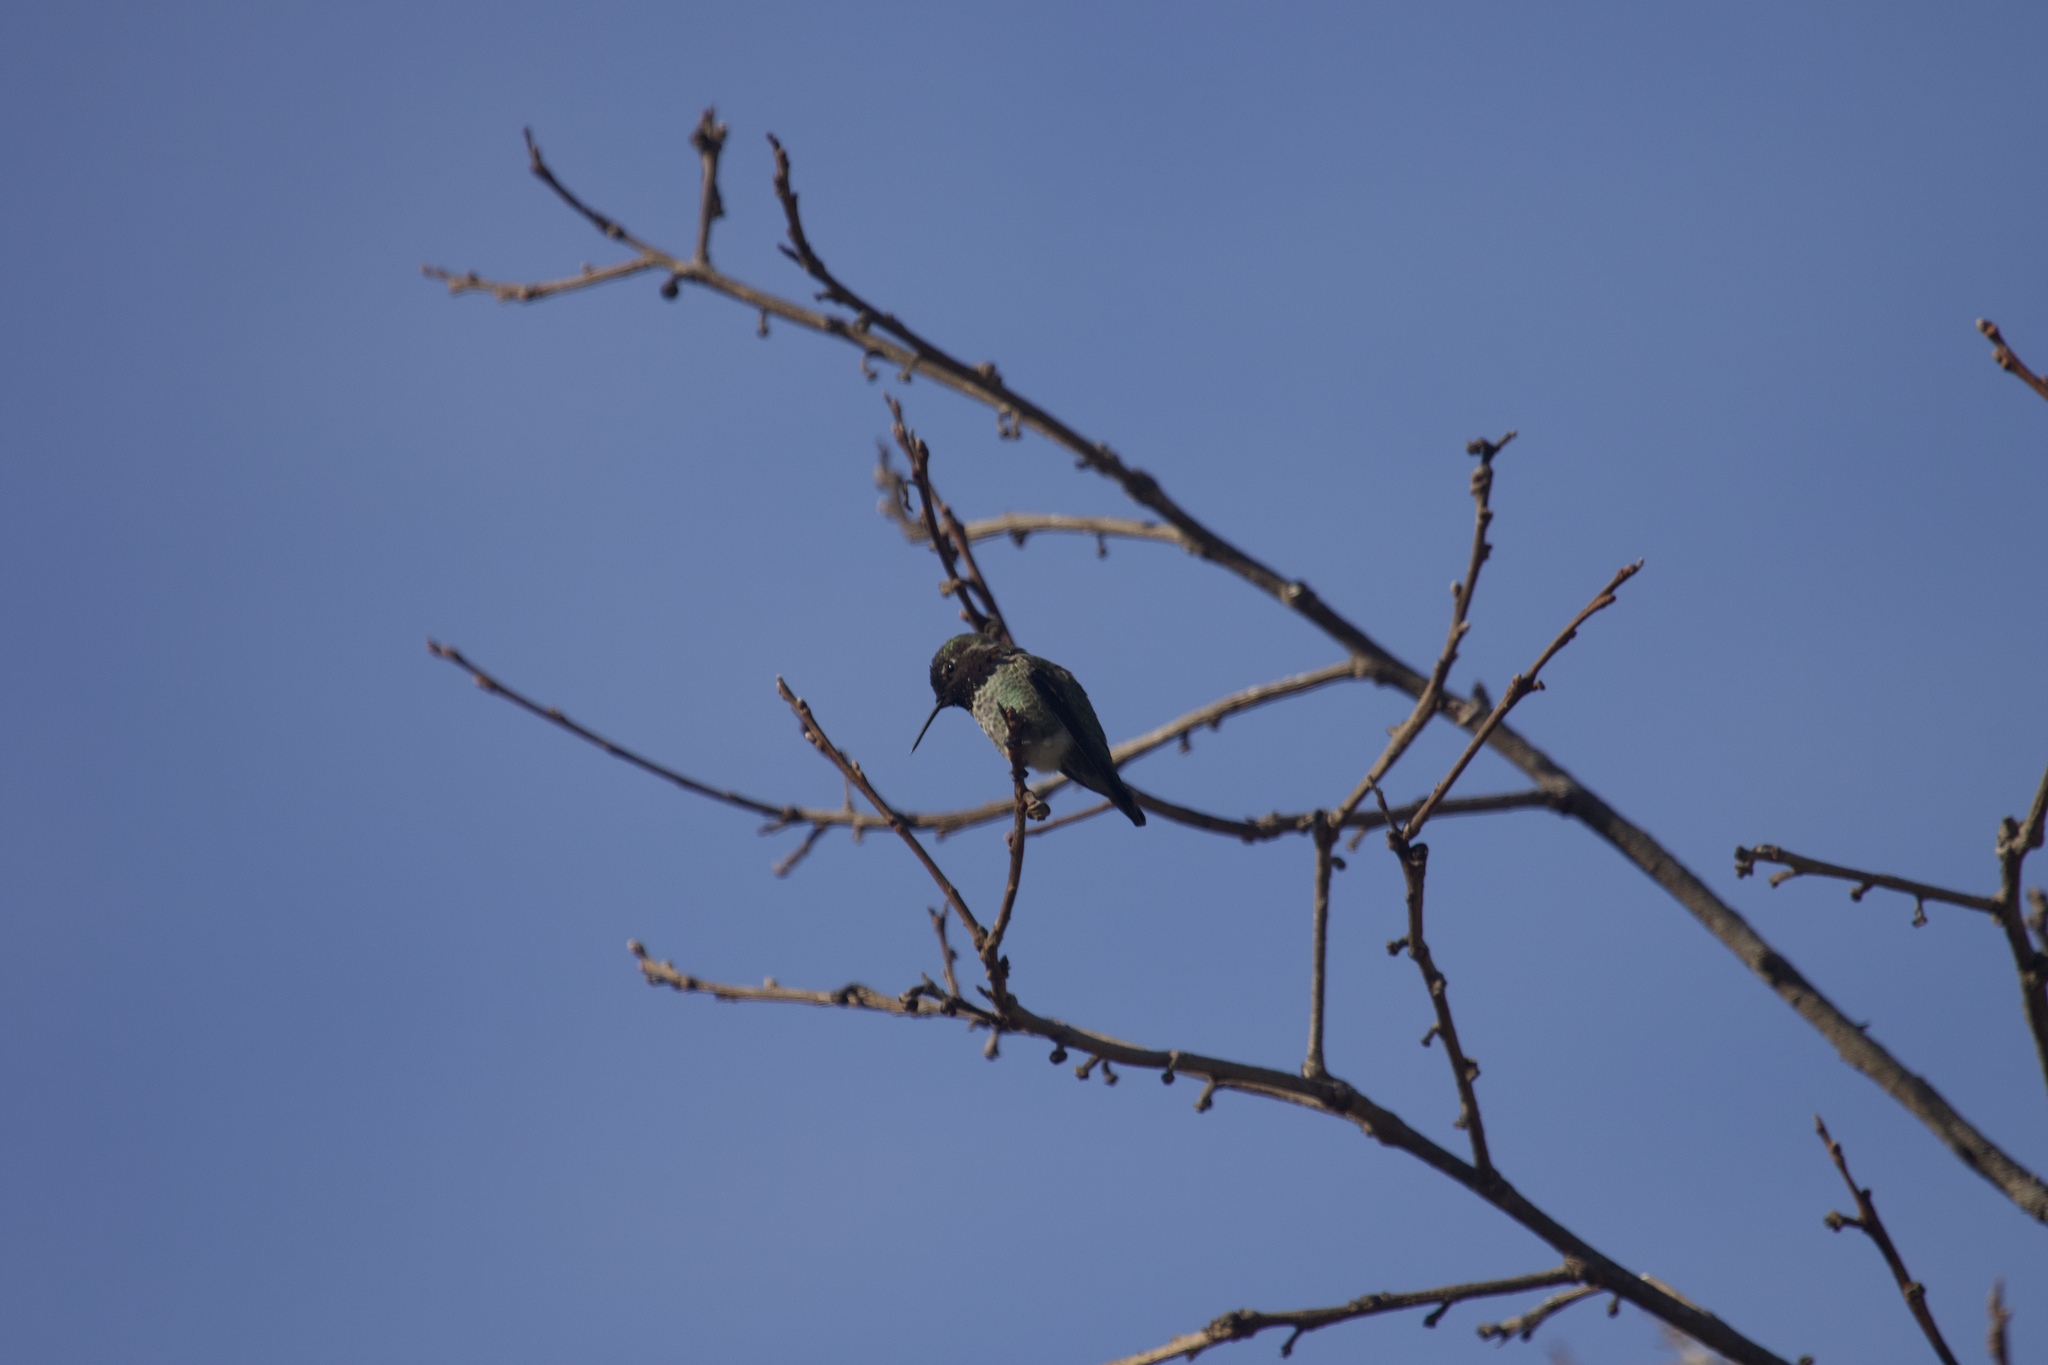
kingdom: Animalia
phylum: Chordata
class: Aves
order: Apodiformes
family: Trochilidae
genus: Calypte
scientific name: Calypte anna
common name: Anna's hummingbird
